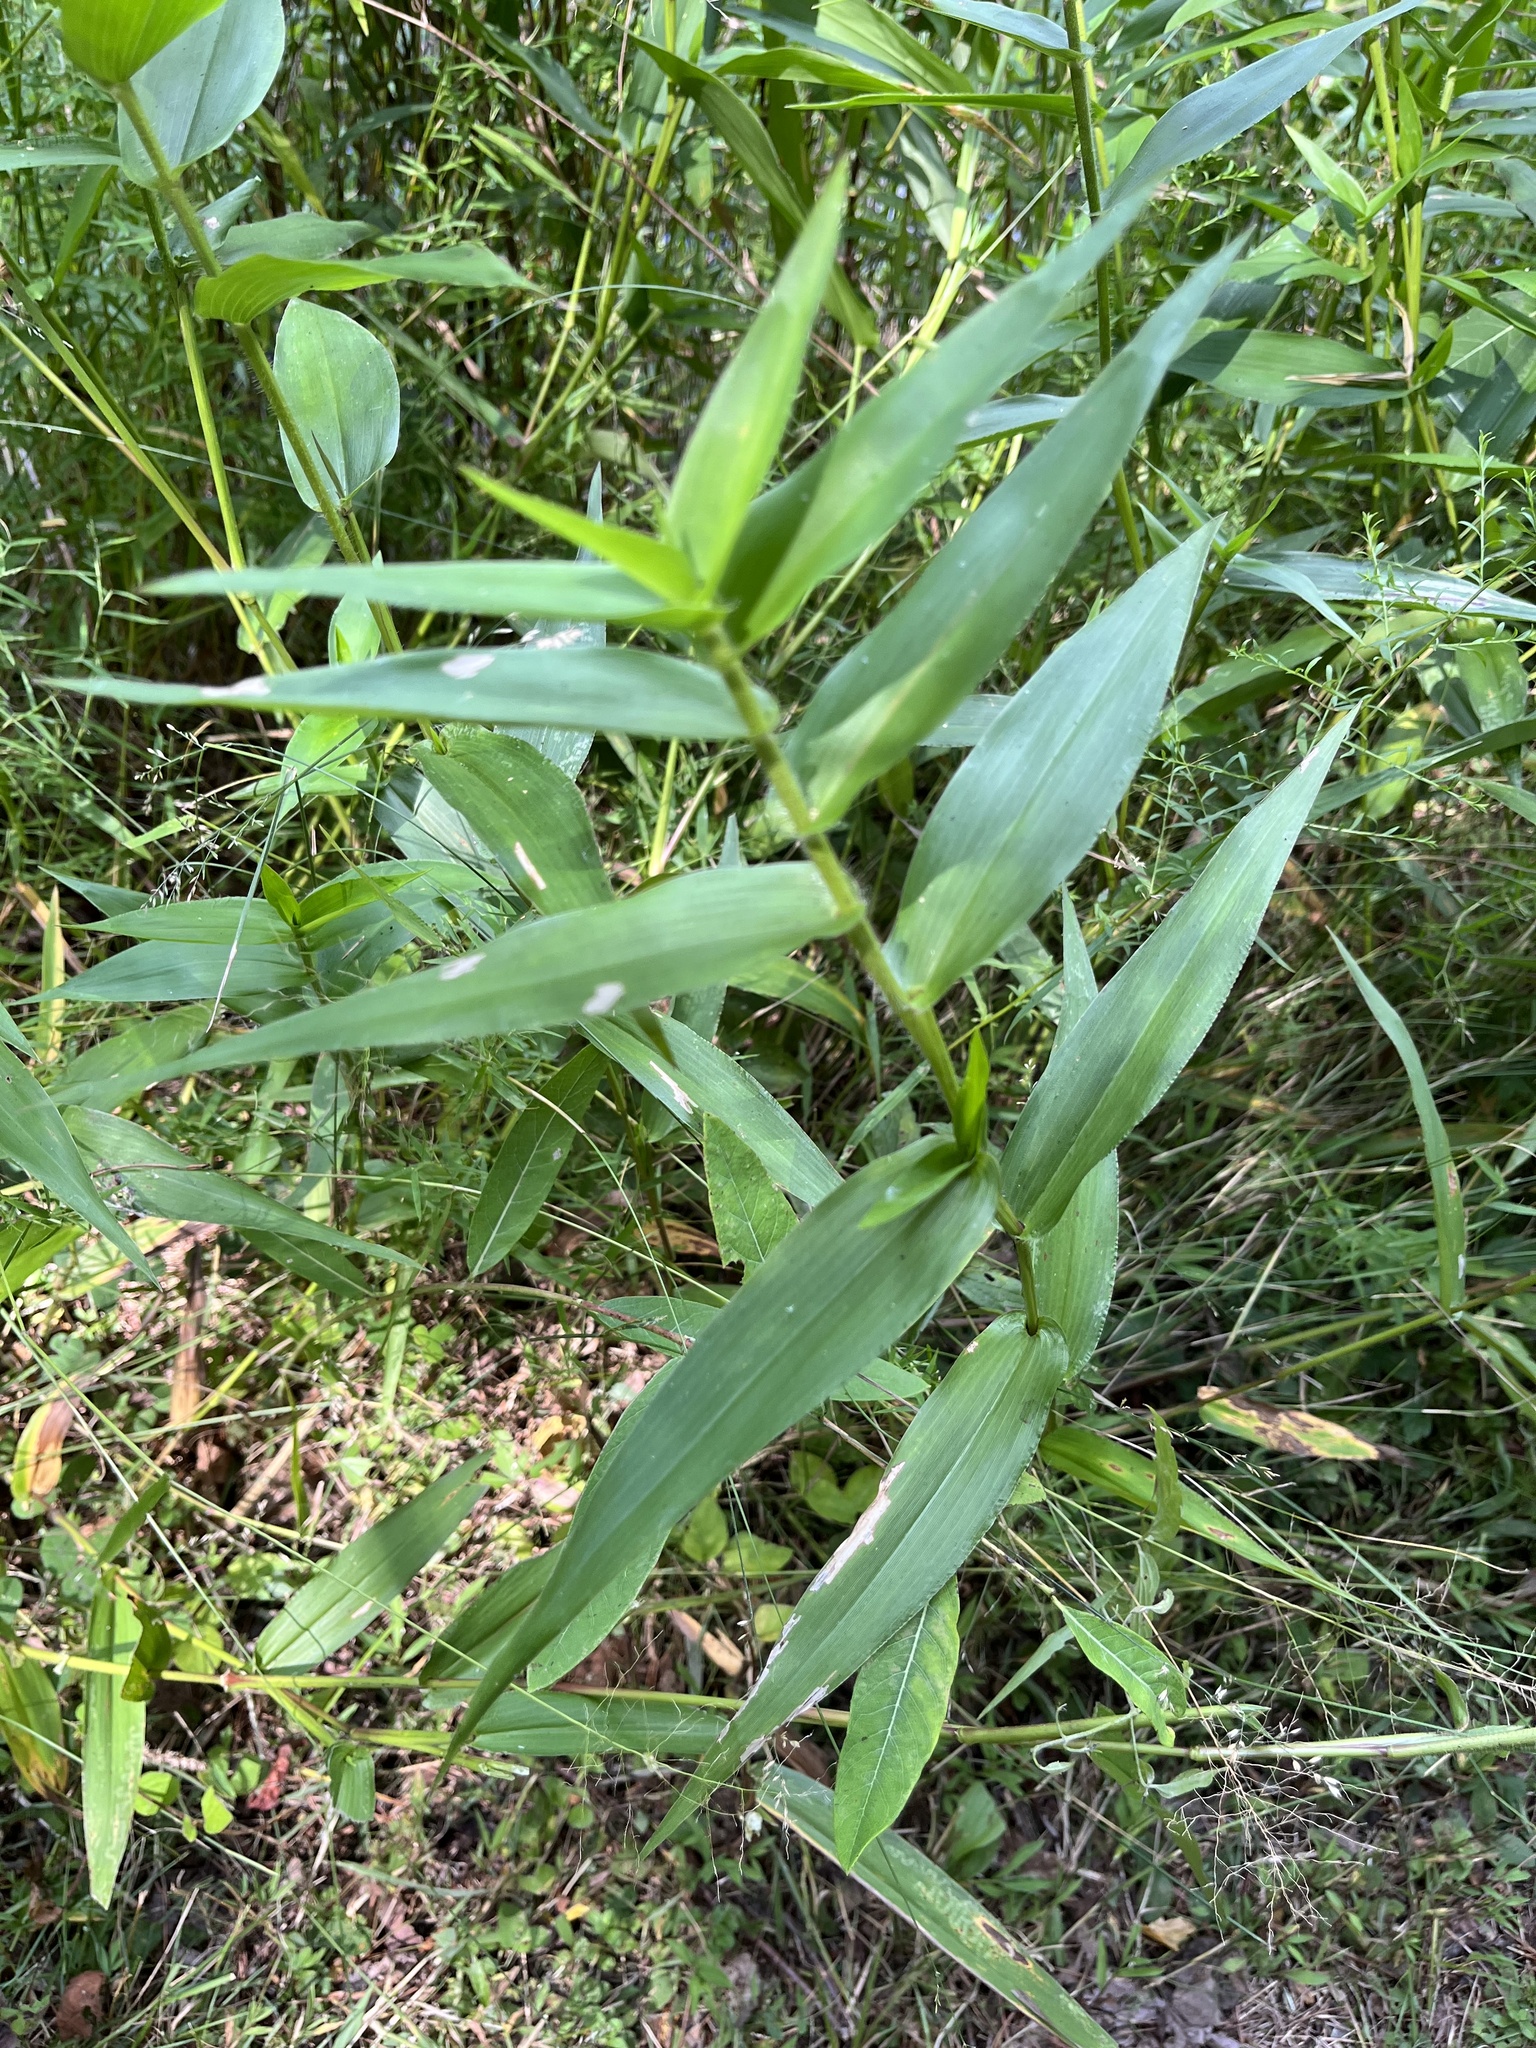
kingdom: Plantae
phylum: Tracheophyta
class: Liliopsida
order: Poales
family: Poaceae
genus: Dichanthelium
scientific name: Dichanthelium clandestinum
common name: Deer-tongue grass
